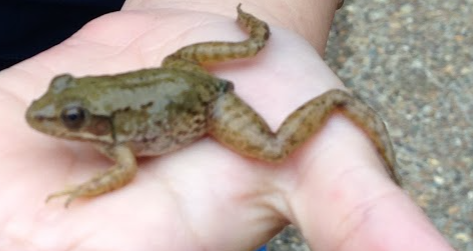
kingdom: Animalia
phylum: Chordata
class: Amphibia
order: Anura
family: Ranidae
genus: Lithobates
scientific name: Lithobates clamitans
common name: Green frog
